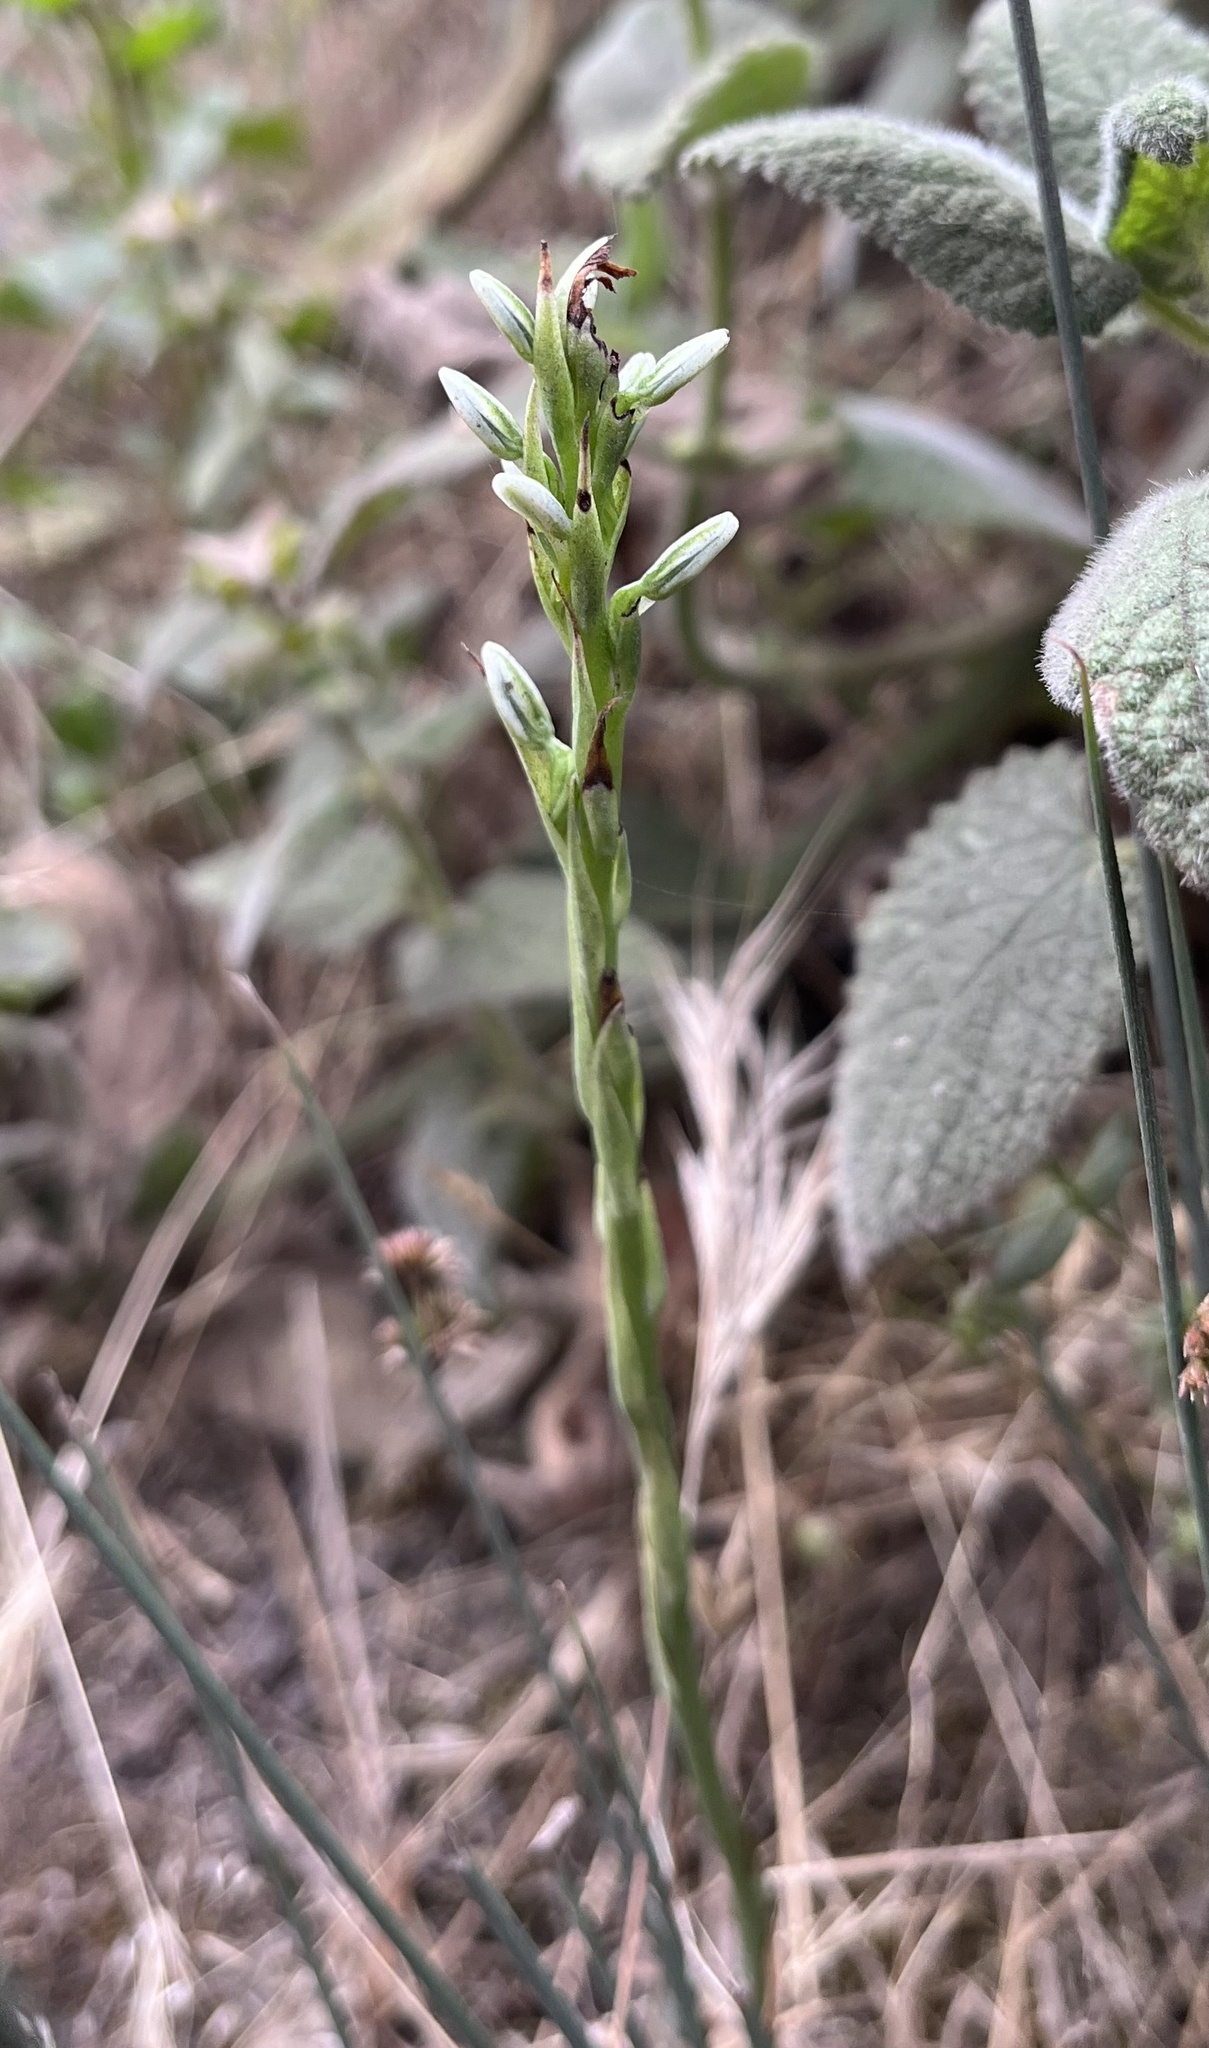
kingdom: Plantae
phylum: Tracheophyta
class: Liliopsida
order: Asparagales
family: Orchidaceae
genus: Platanthera
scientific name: Platanthera elegans
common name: Coast piperia
